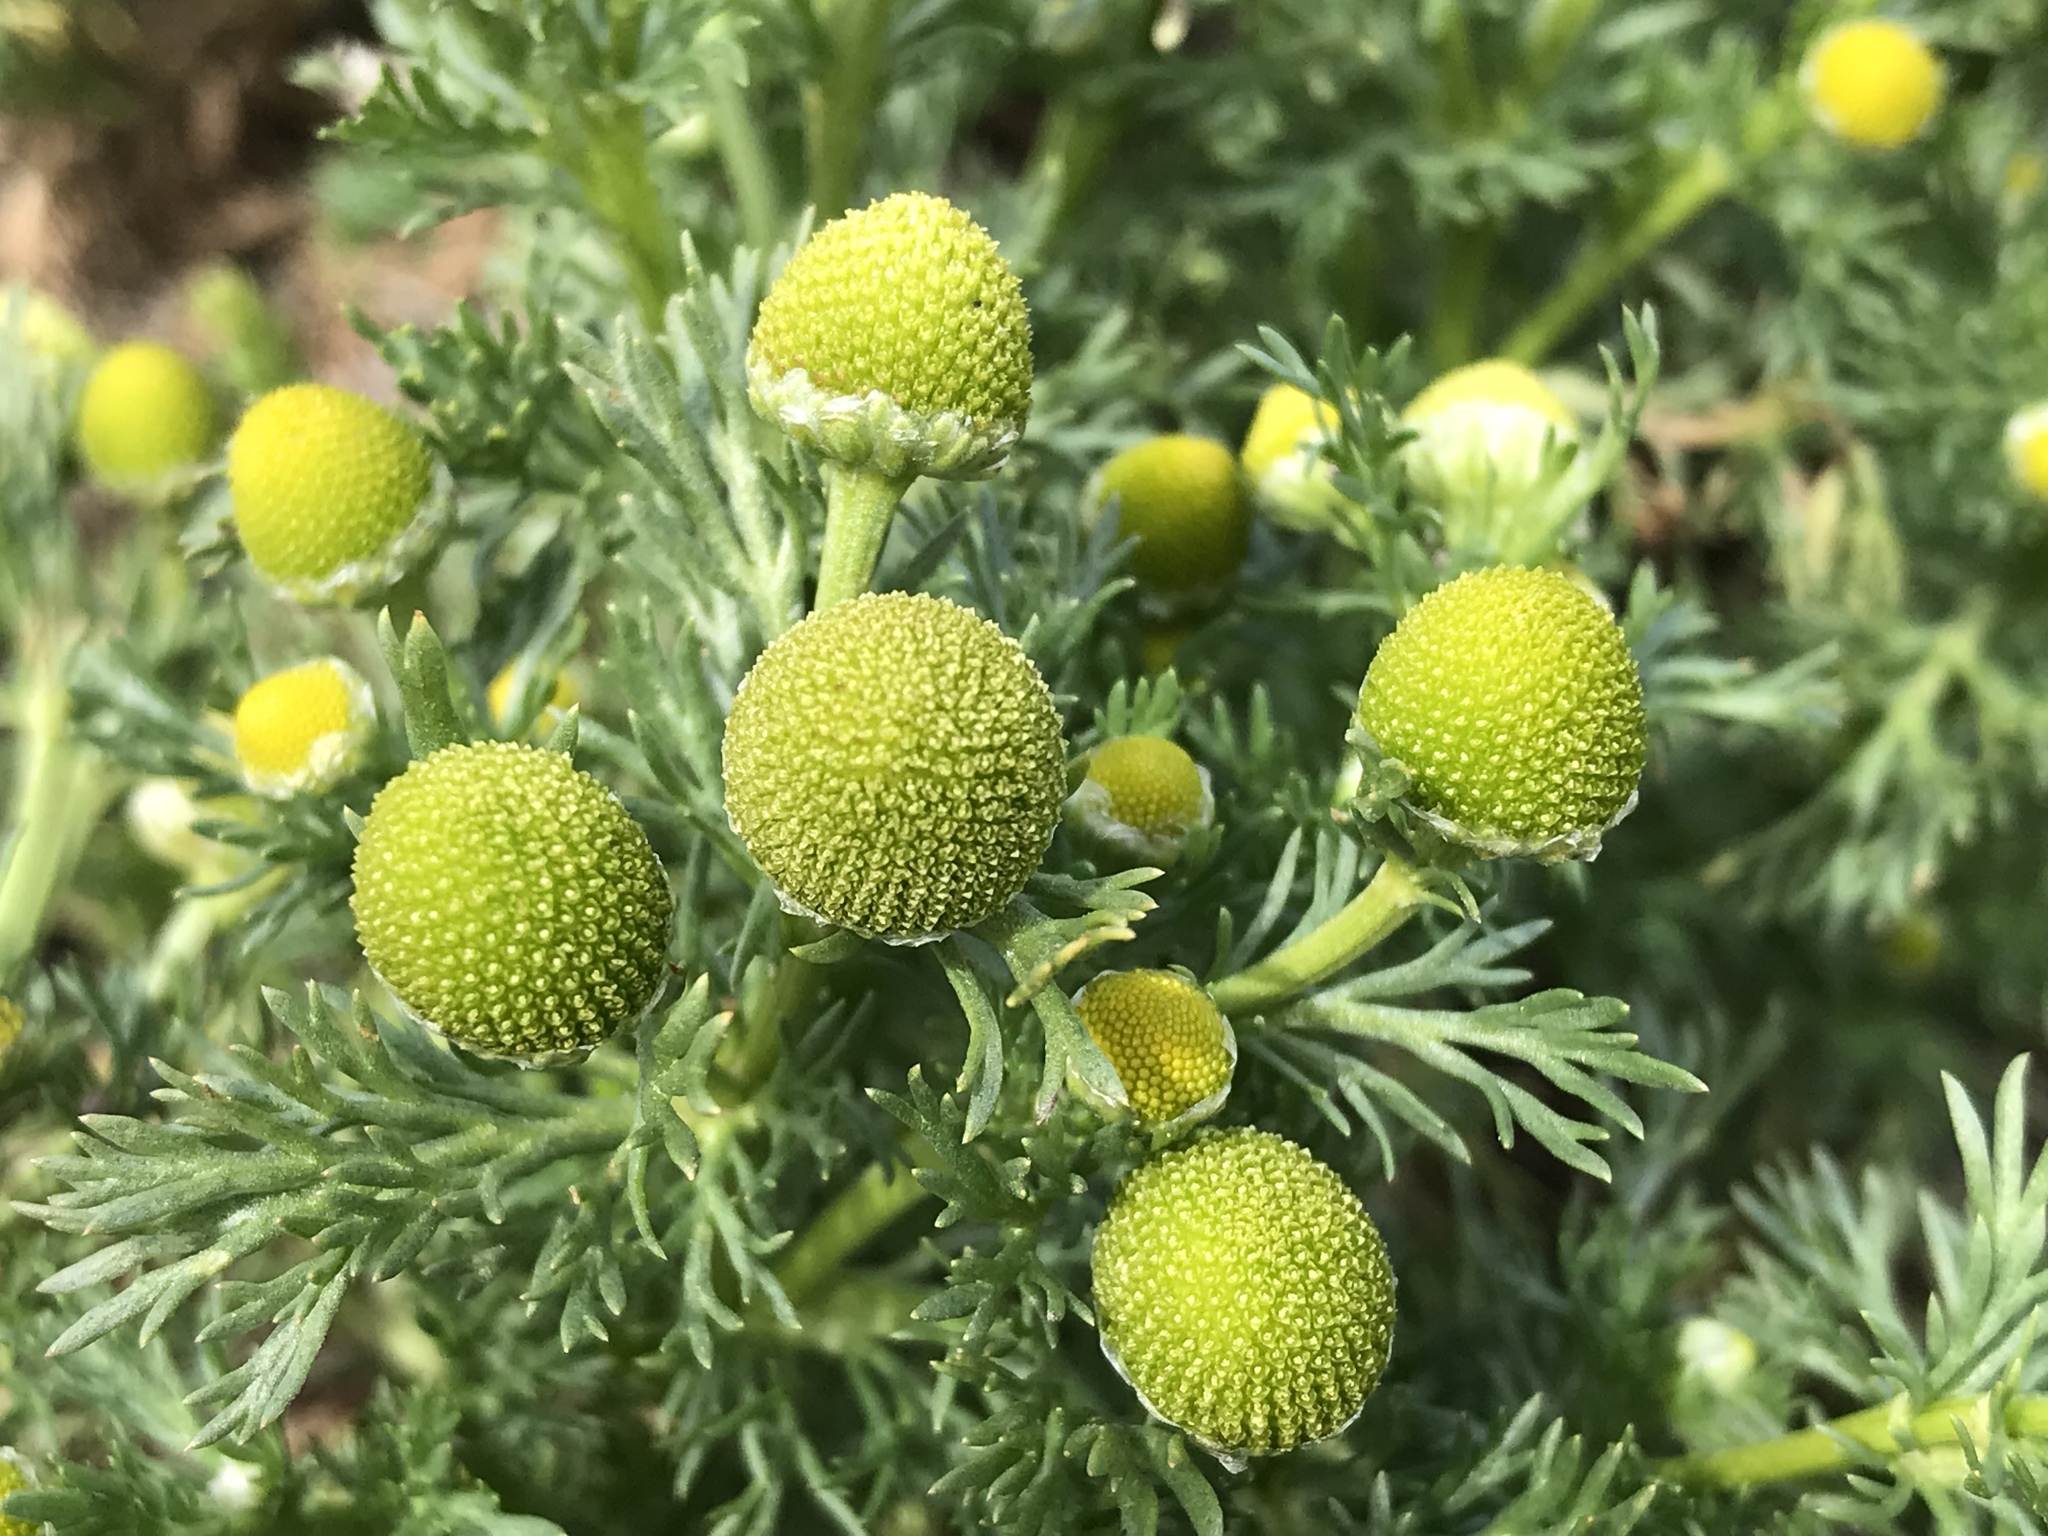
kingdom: Plantae
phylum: Tracheophyta
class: Magnoliopsida
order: Asterales
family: Asteraceae
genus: Matricaria
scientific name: Matricaria discoidea
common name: Disc mayweed
